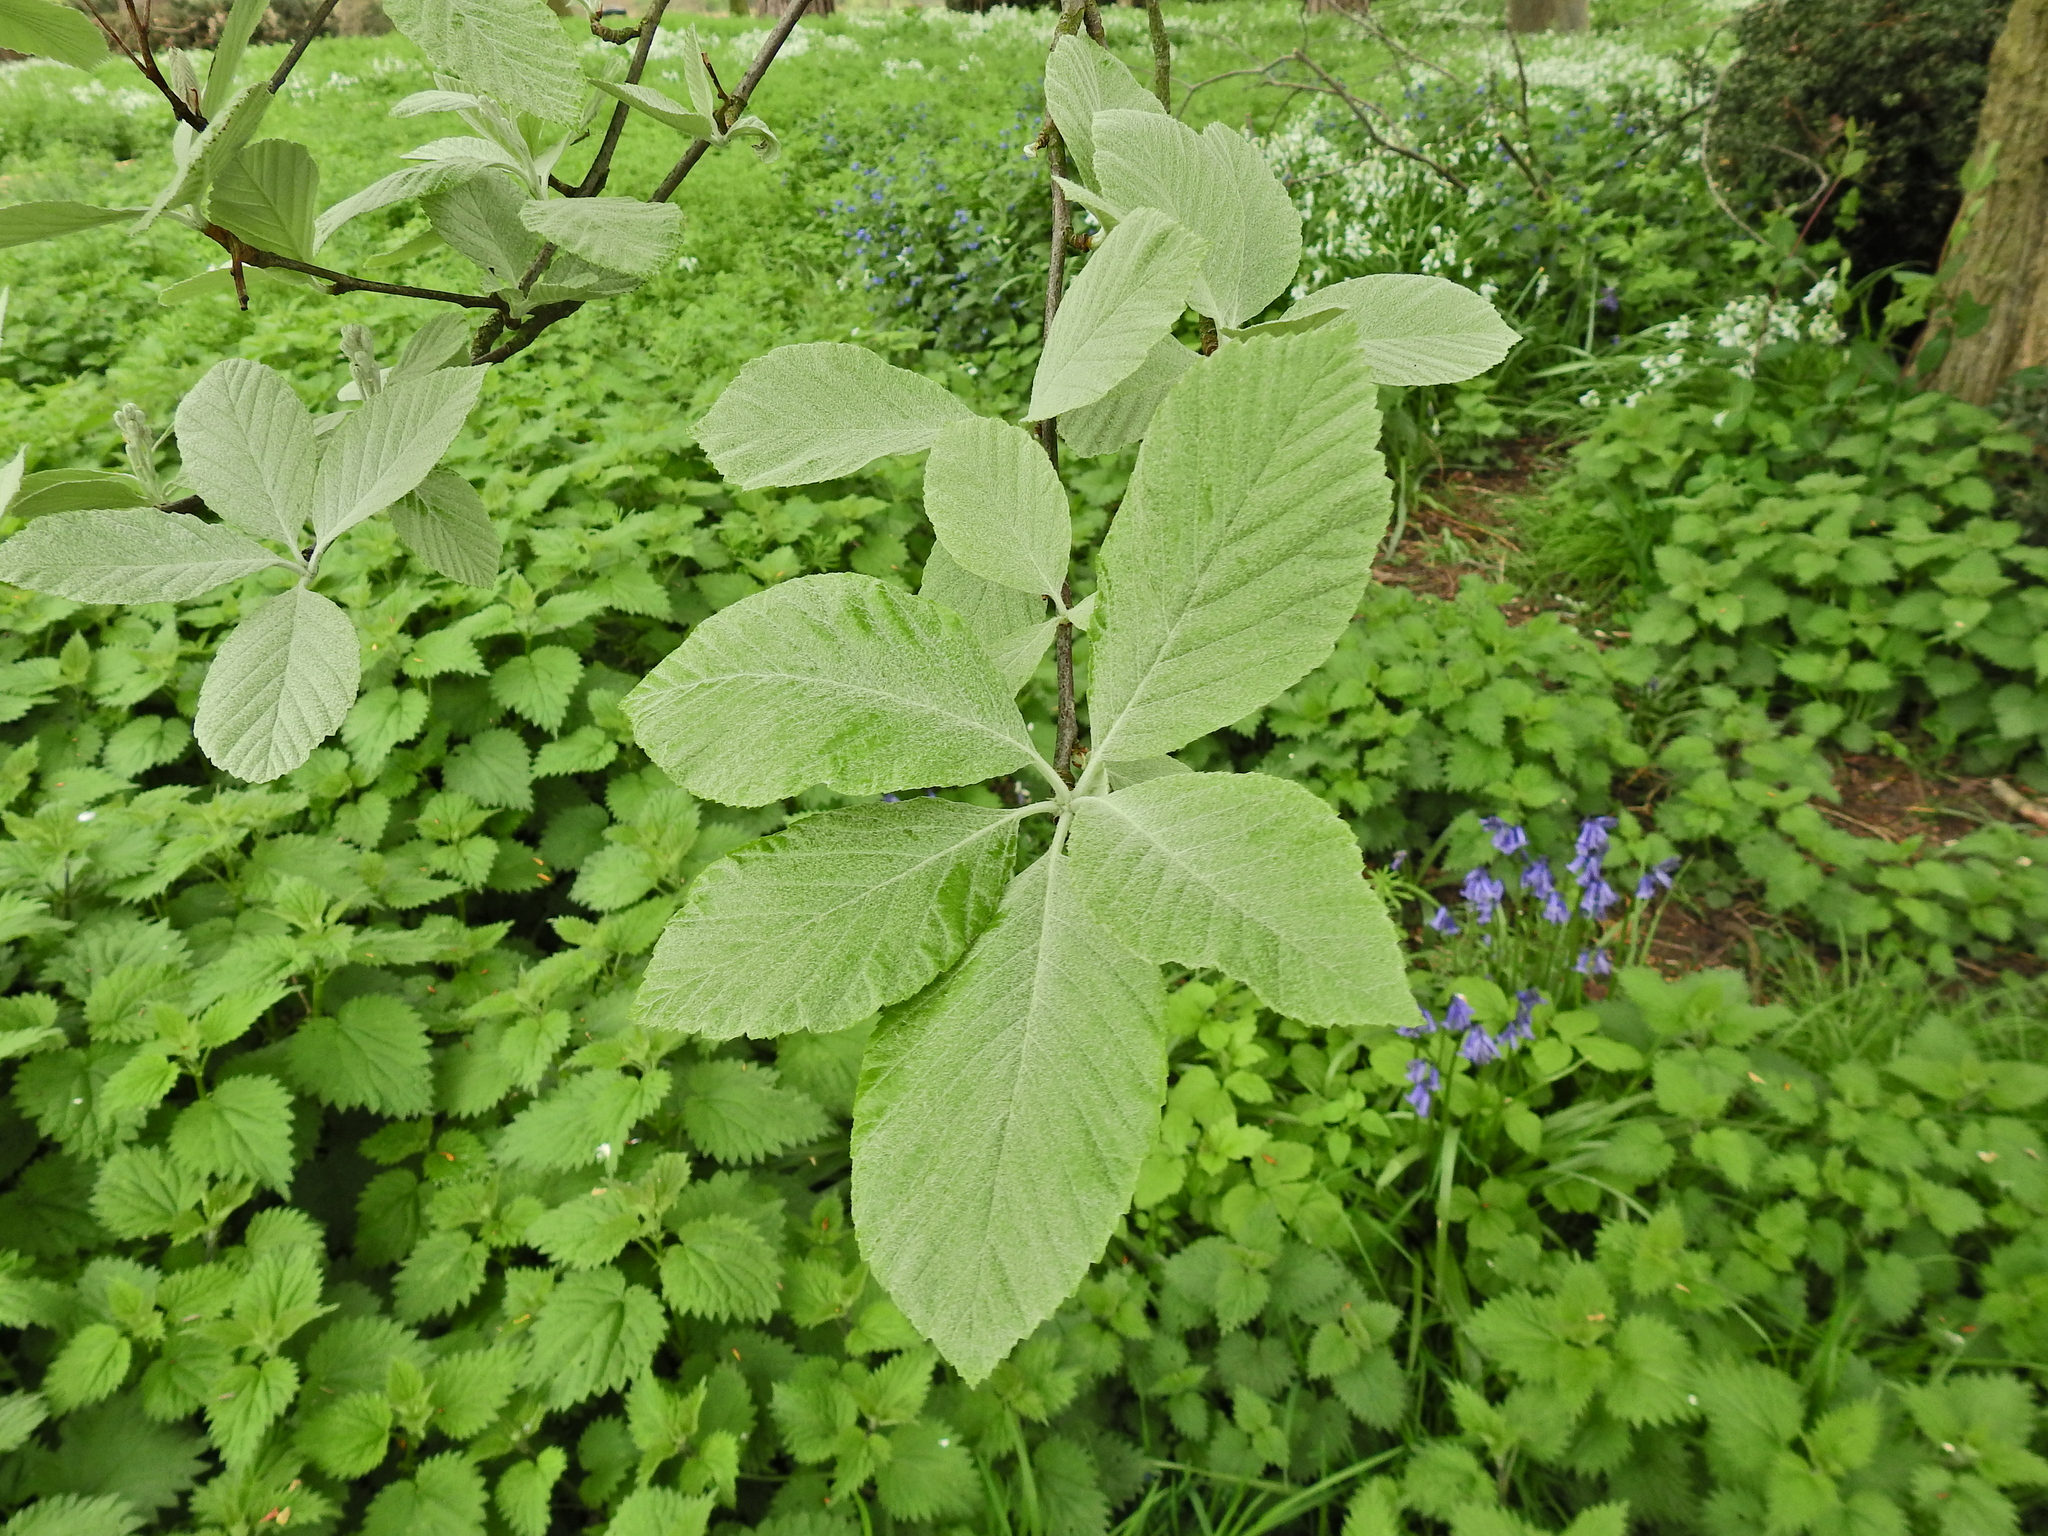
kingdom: Plantae
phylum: Tracheophyta
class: Magnoliopsida
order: Rosales
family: Rosaceae
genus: Aria
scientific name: Aria edulis
